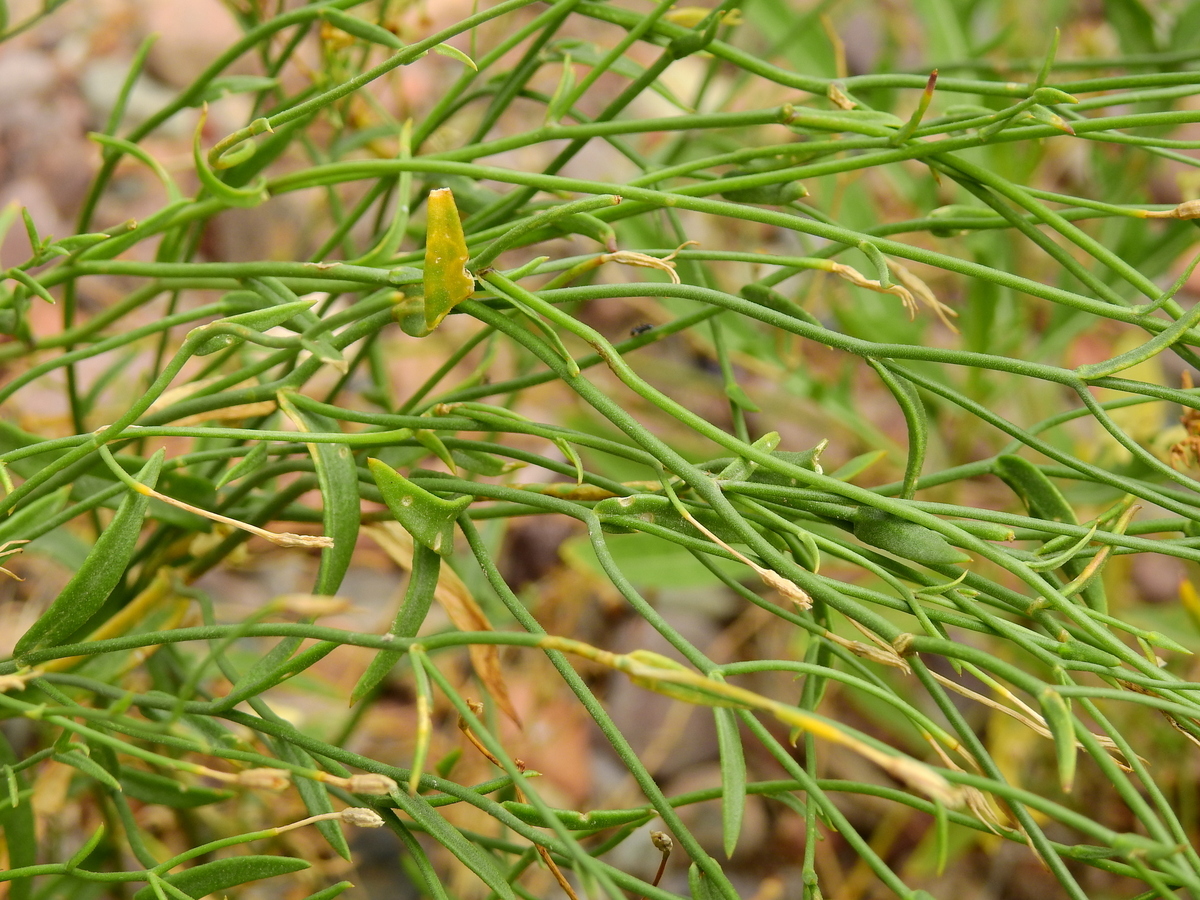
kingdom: Plantae
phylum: Tracheophyta
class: Magnoliopsida
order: Solanales
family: Solanaceae
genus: Leptoglossis
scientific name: Leptoglossis linifolia
